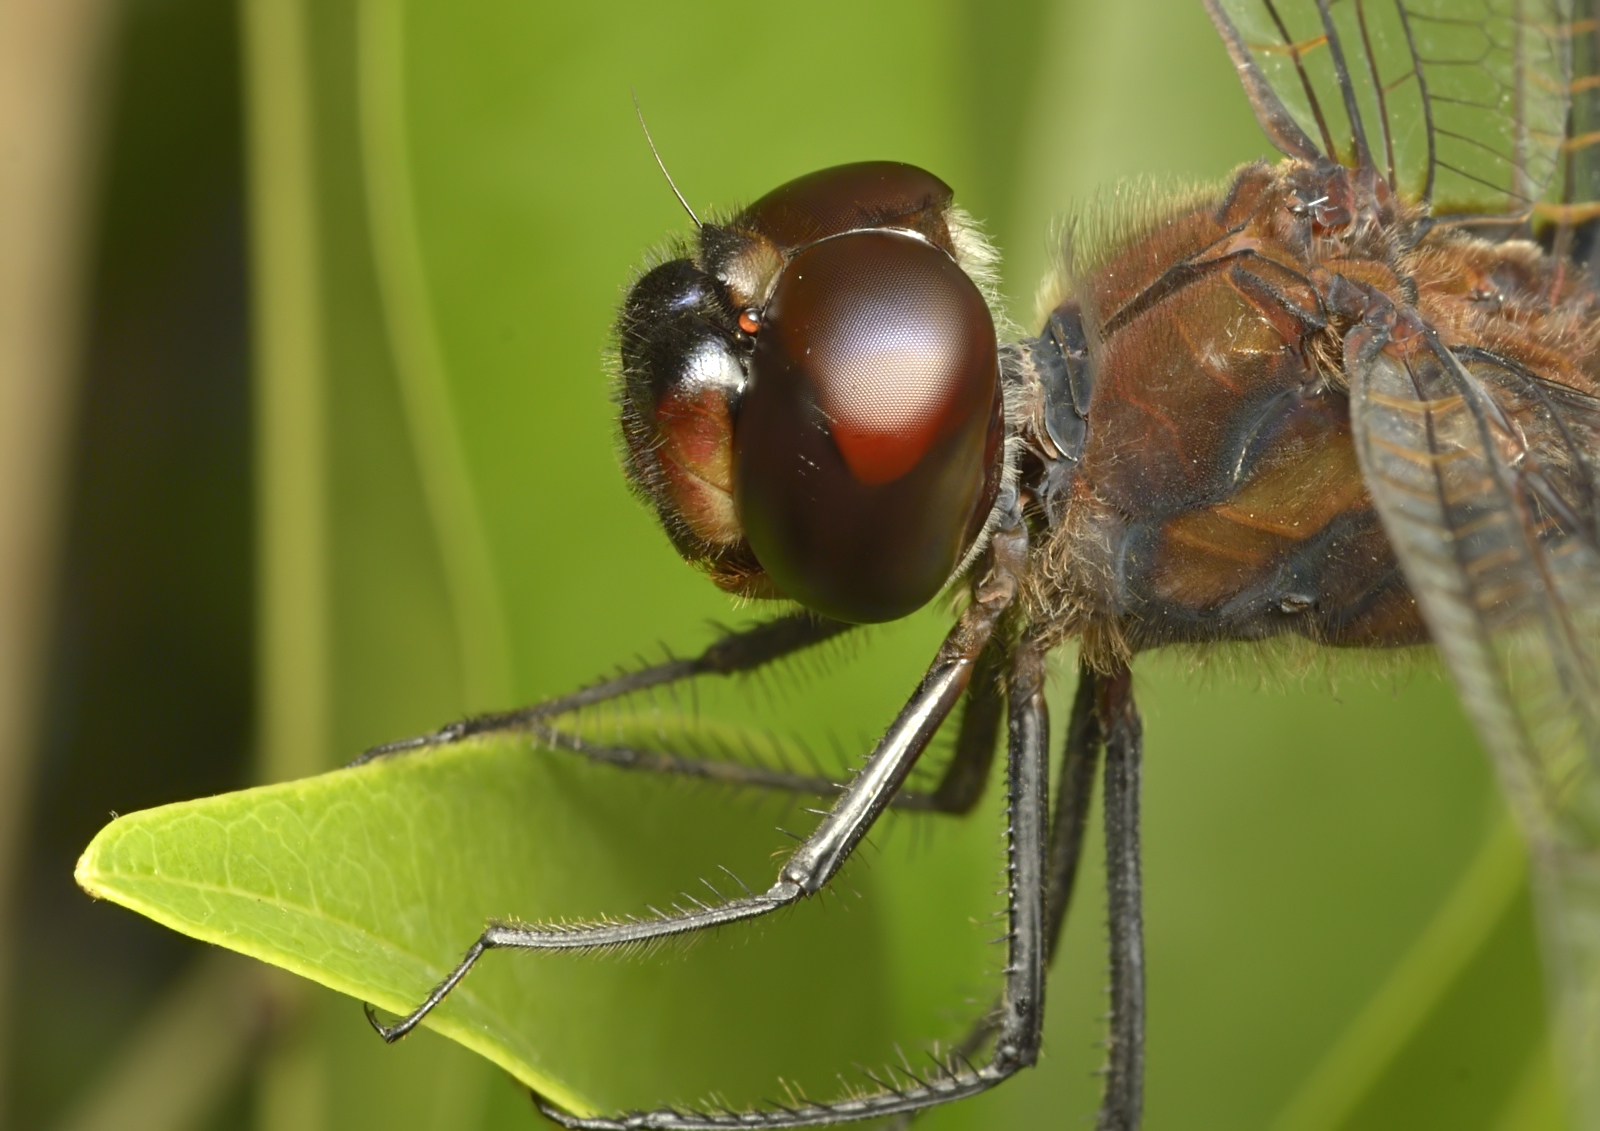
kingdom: Animalia
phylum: Arthropoda
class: Insecta
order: Odonata
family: Libellulidae
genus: Tramea
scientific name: Tramea limbata
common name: Ferruginous glider
